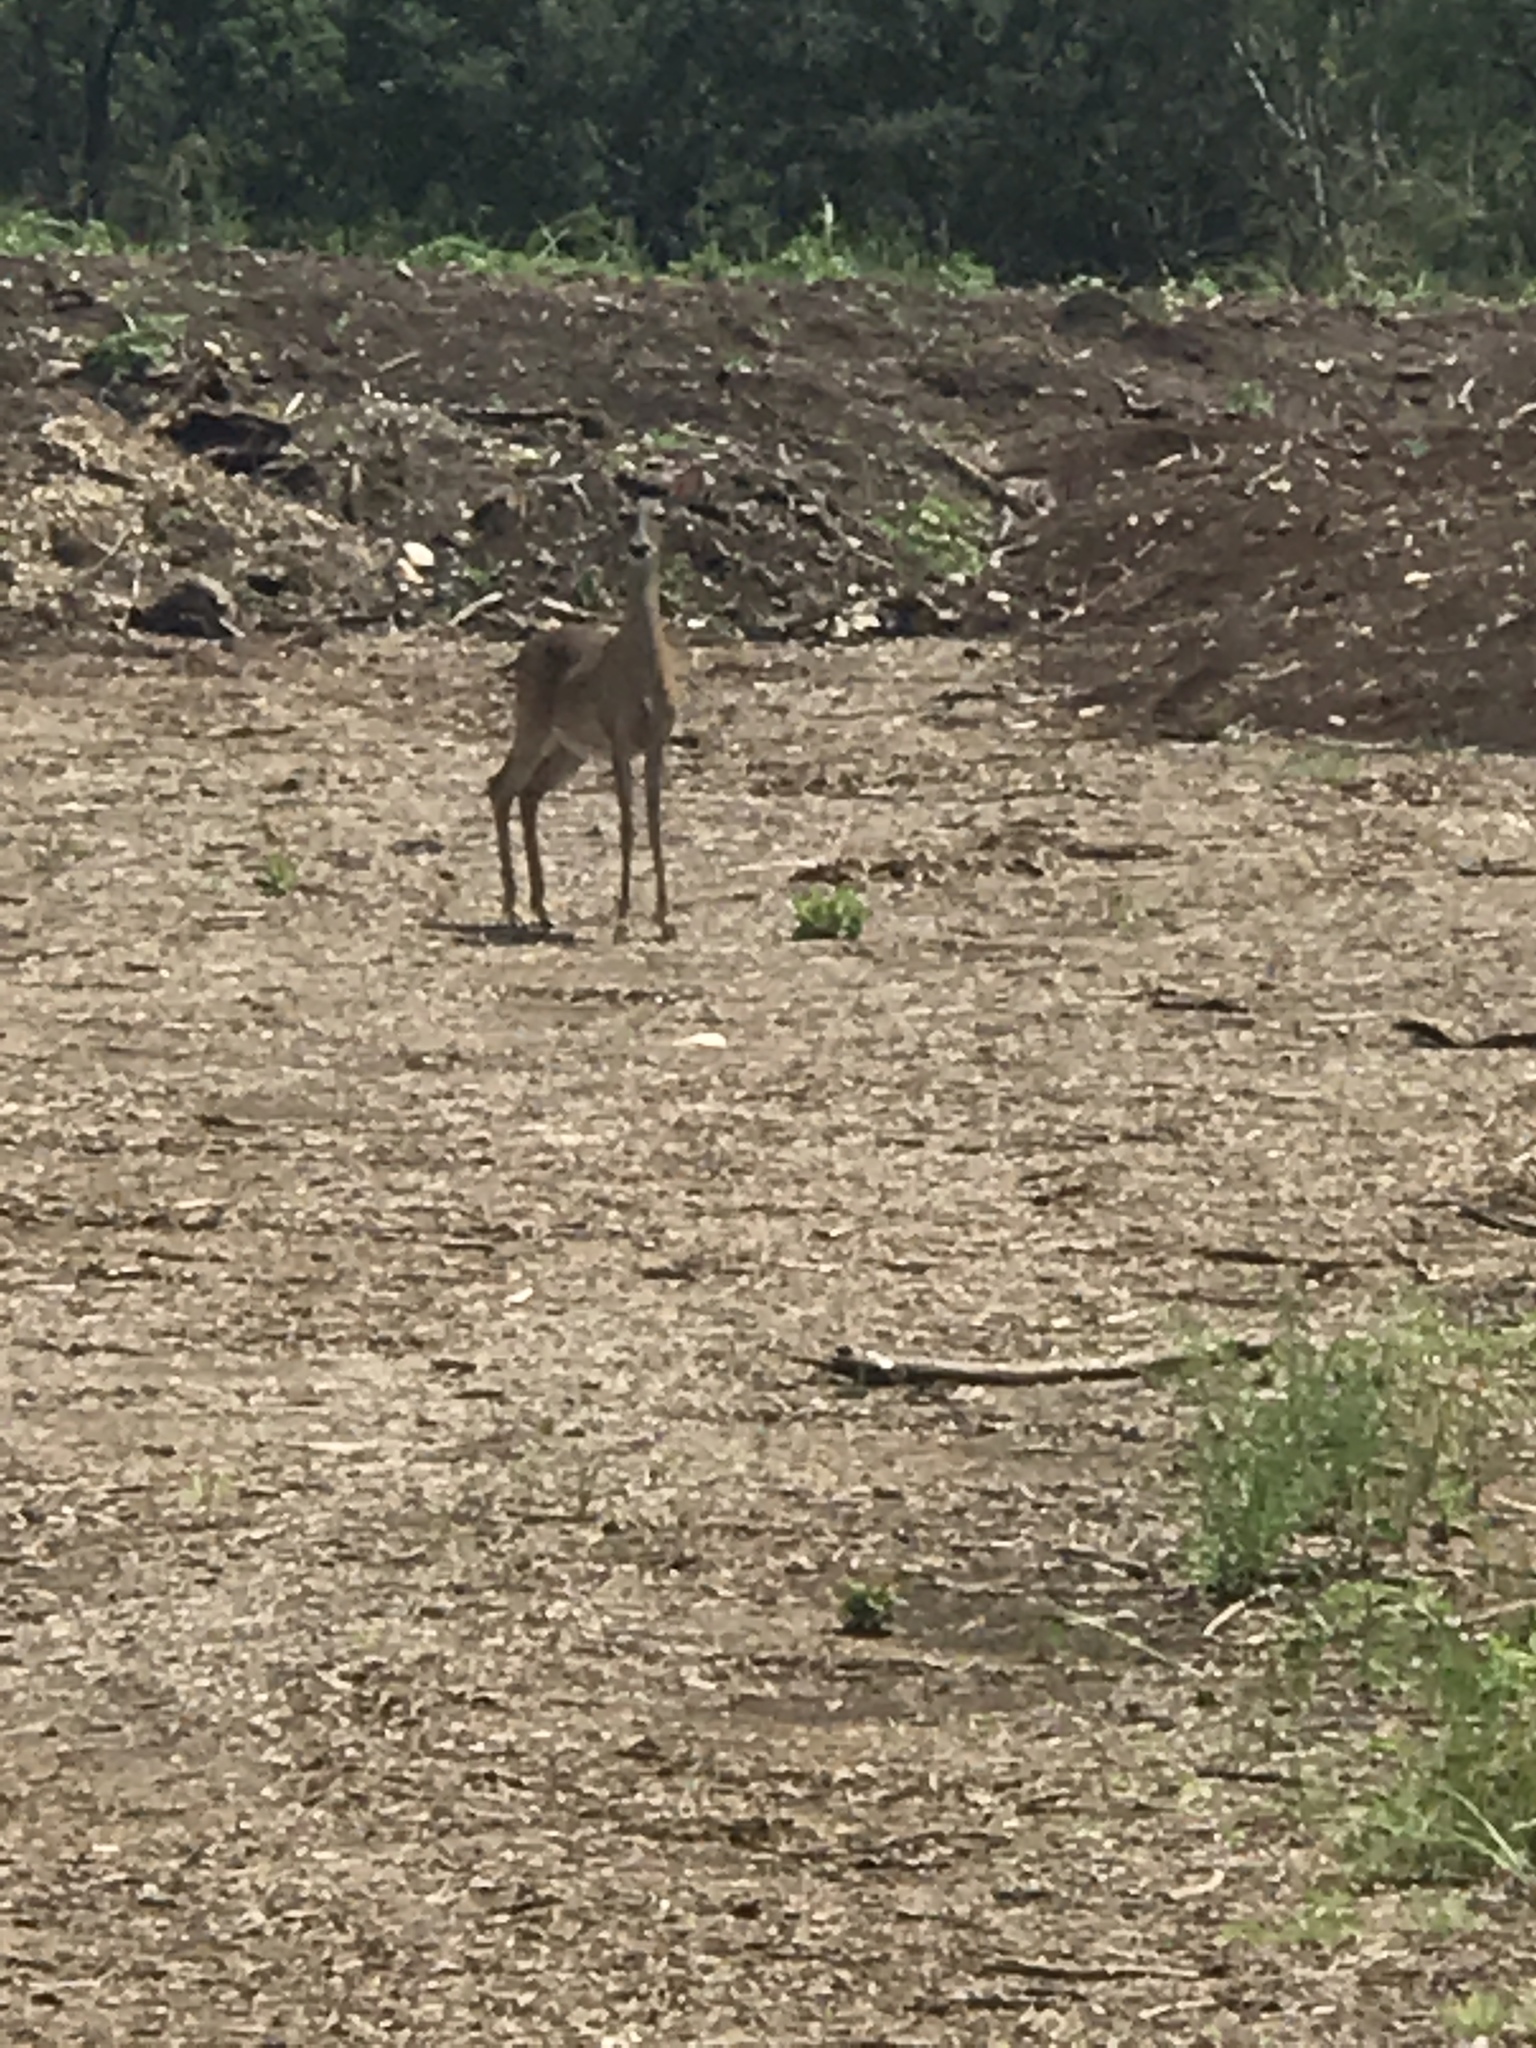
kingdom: Animalia
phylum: Chordata
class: Mammalia
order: Artiodactyla
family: Cervidae
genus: Odocoileus
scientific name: Odocoileus virginianus
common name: White-tailed deer
